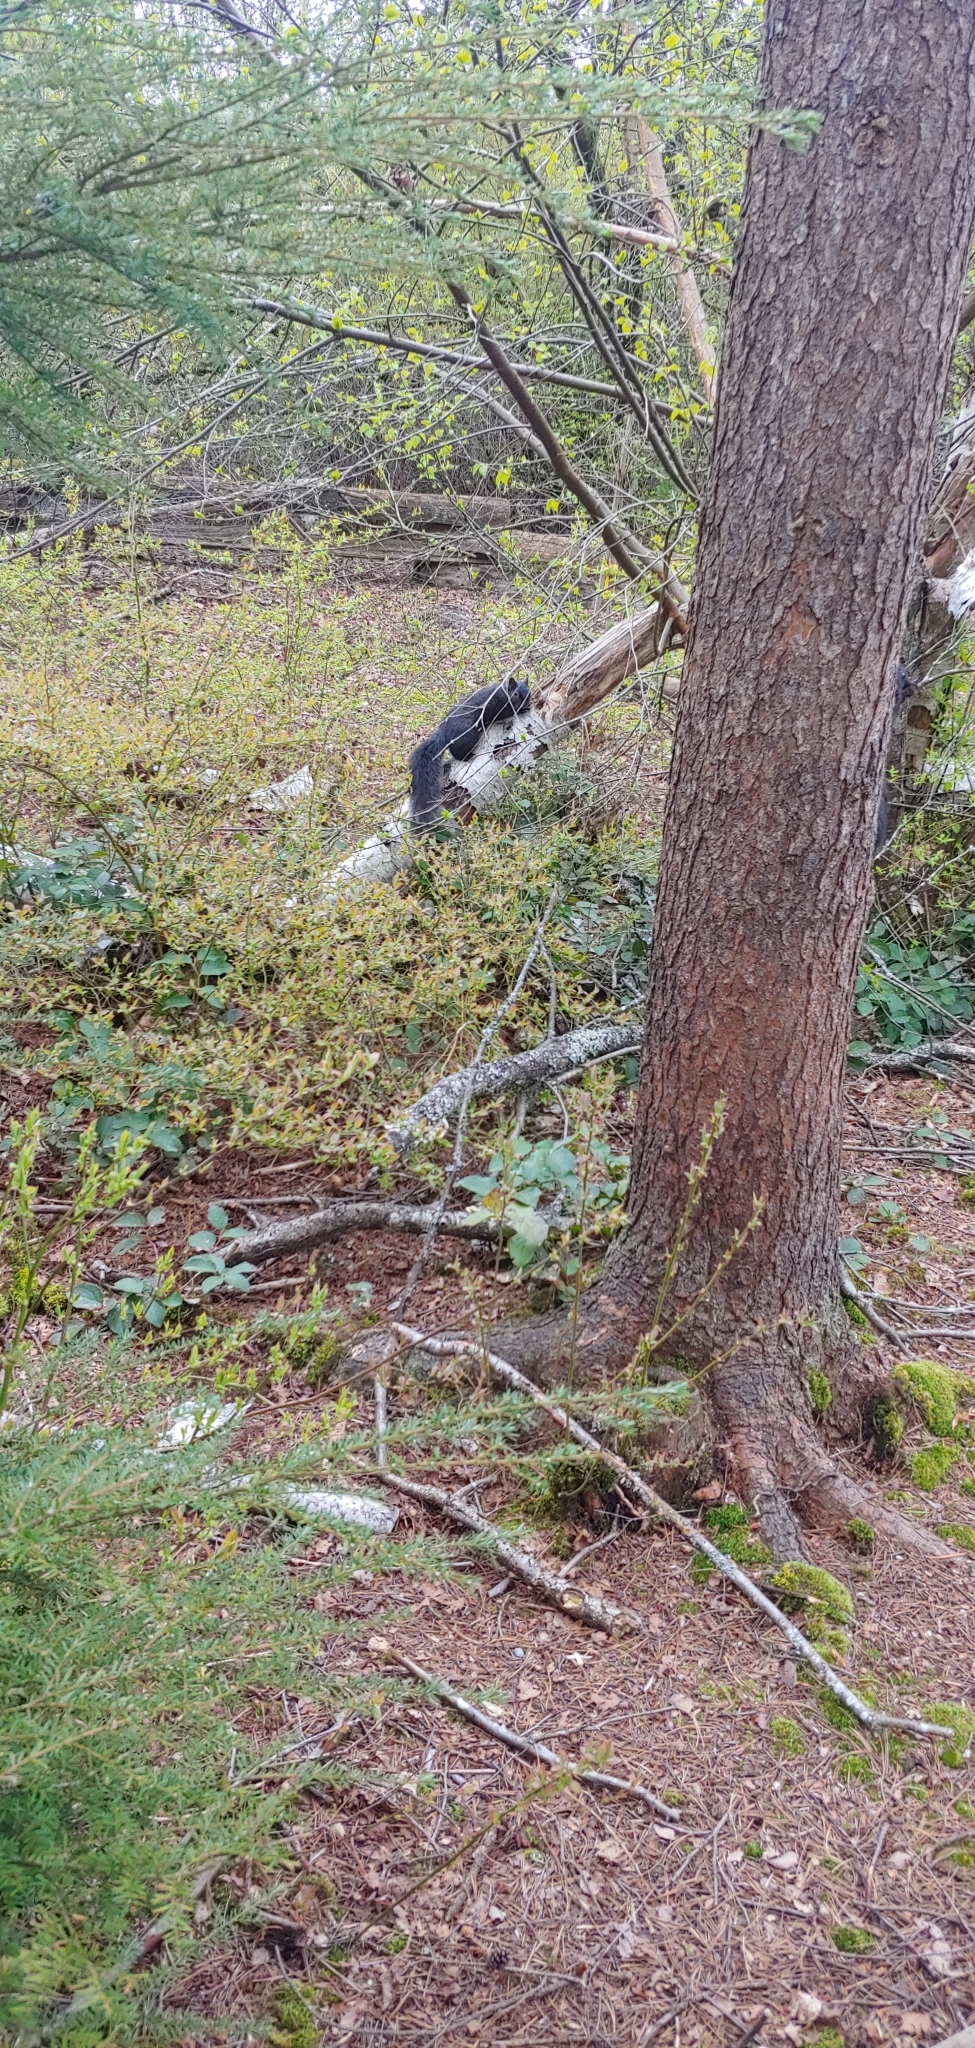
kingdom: Animalia
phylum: Chordata
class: Mammalia
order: Rodentia
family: Sciuridae
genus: Sciurus
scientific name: Sciurus carolinensis
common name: Eastern gray squirrel
